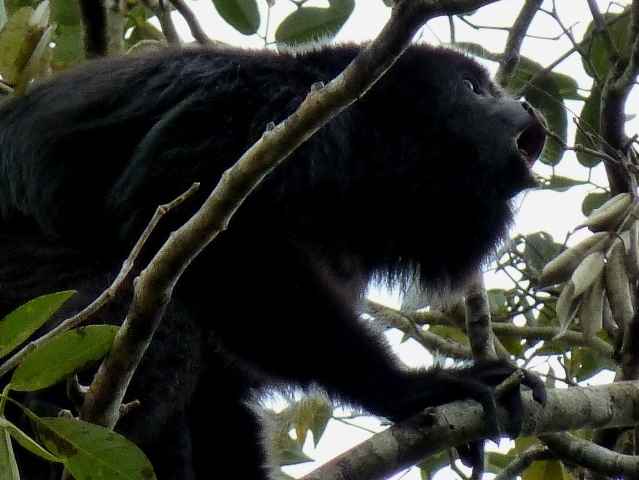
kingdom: Animalia
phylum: Chordata
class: Mammalia
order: Primates
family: Atelidae
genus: Alouatta
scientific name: Alouatta pigra
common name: Guatemalan black howler
